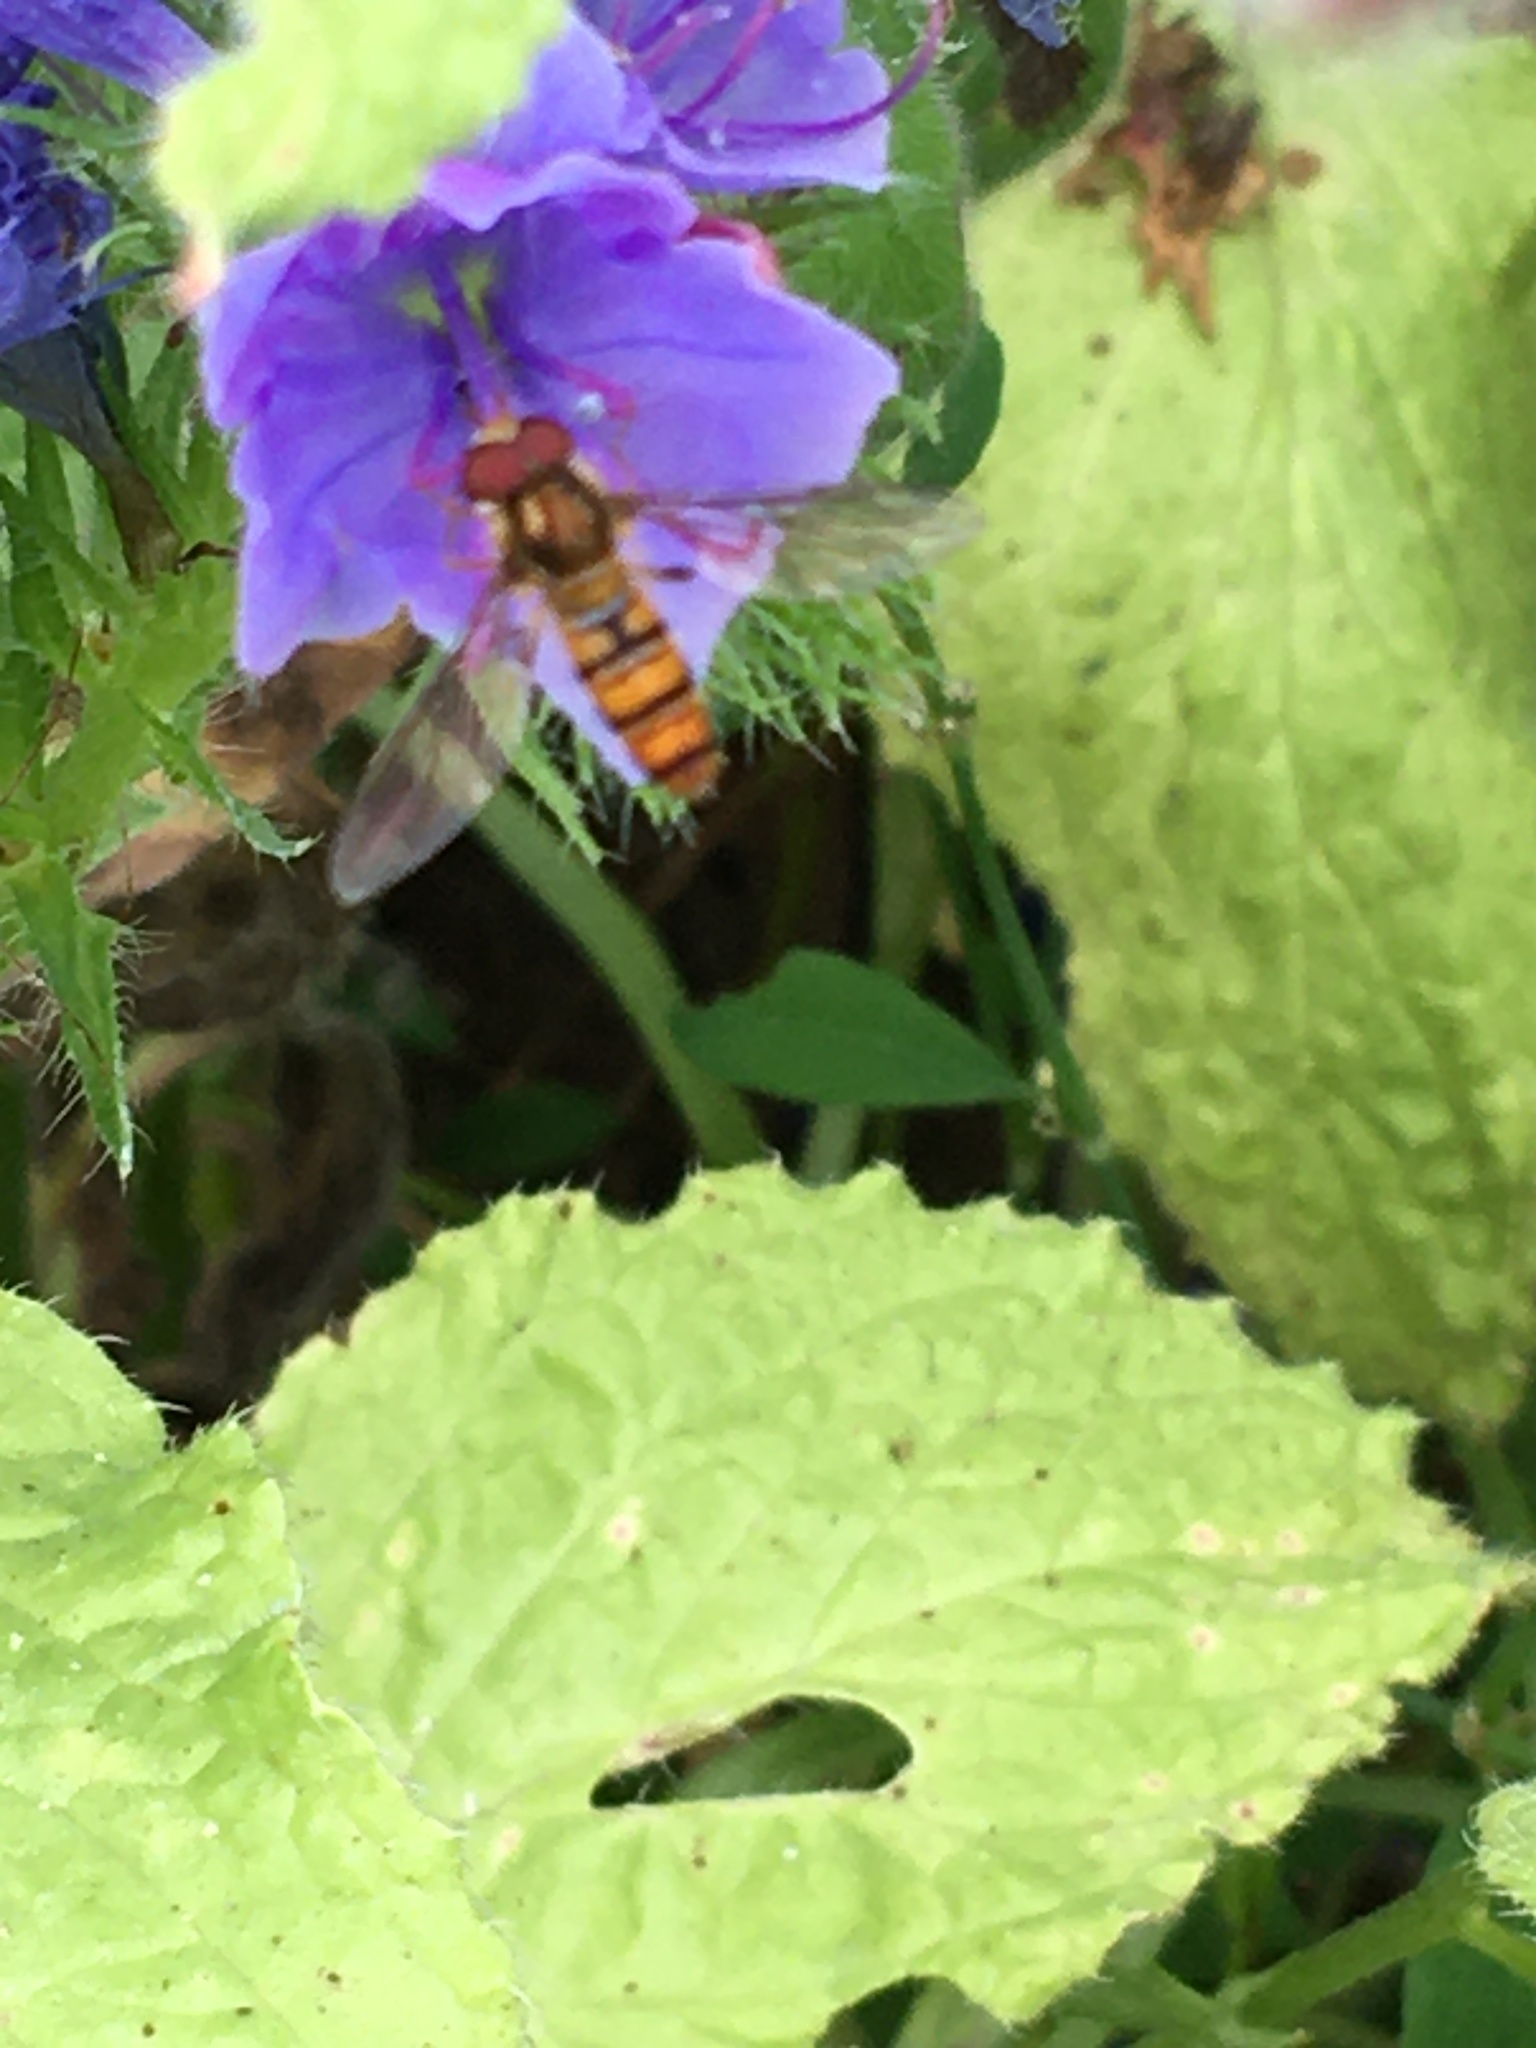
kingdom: Animalia
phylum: Arthropoda
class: Insecta
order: Diptera
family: Syrphidae
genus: Episyrphus
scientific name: Episyrphus balteatus
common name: Marmalade hoverfly
